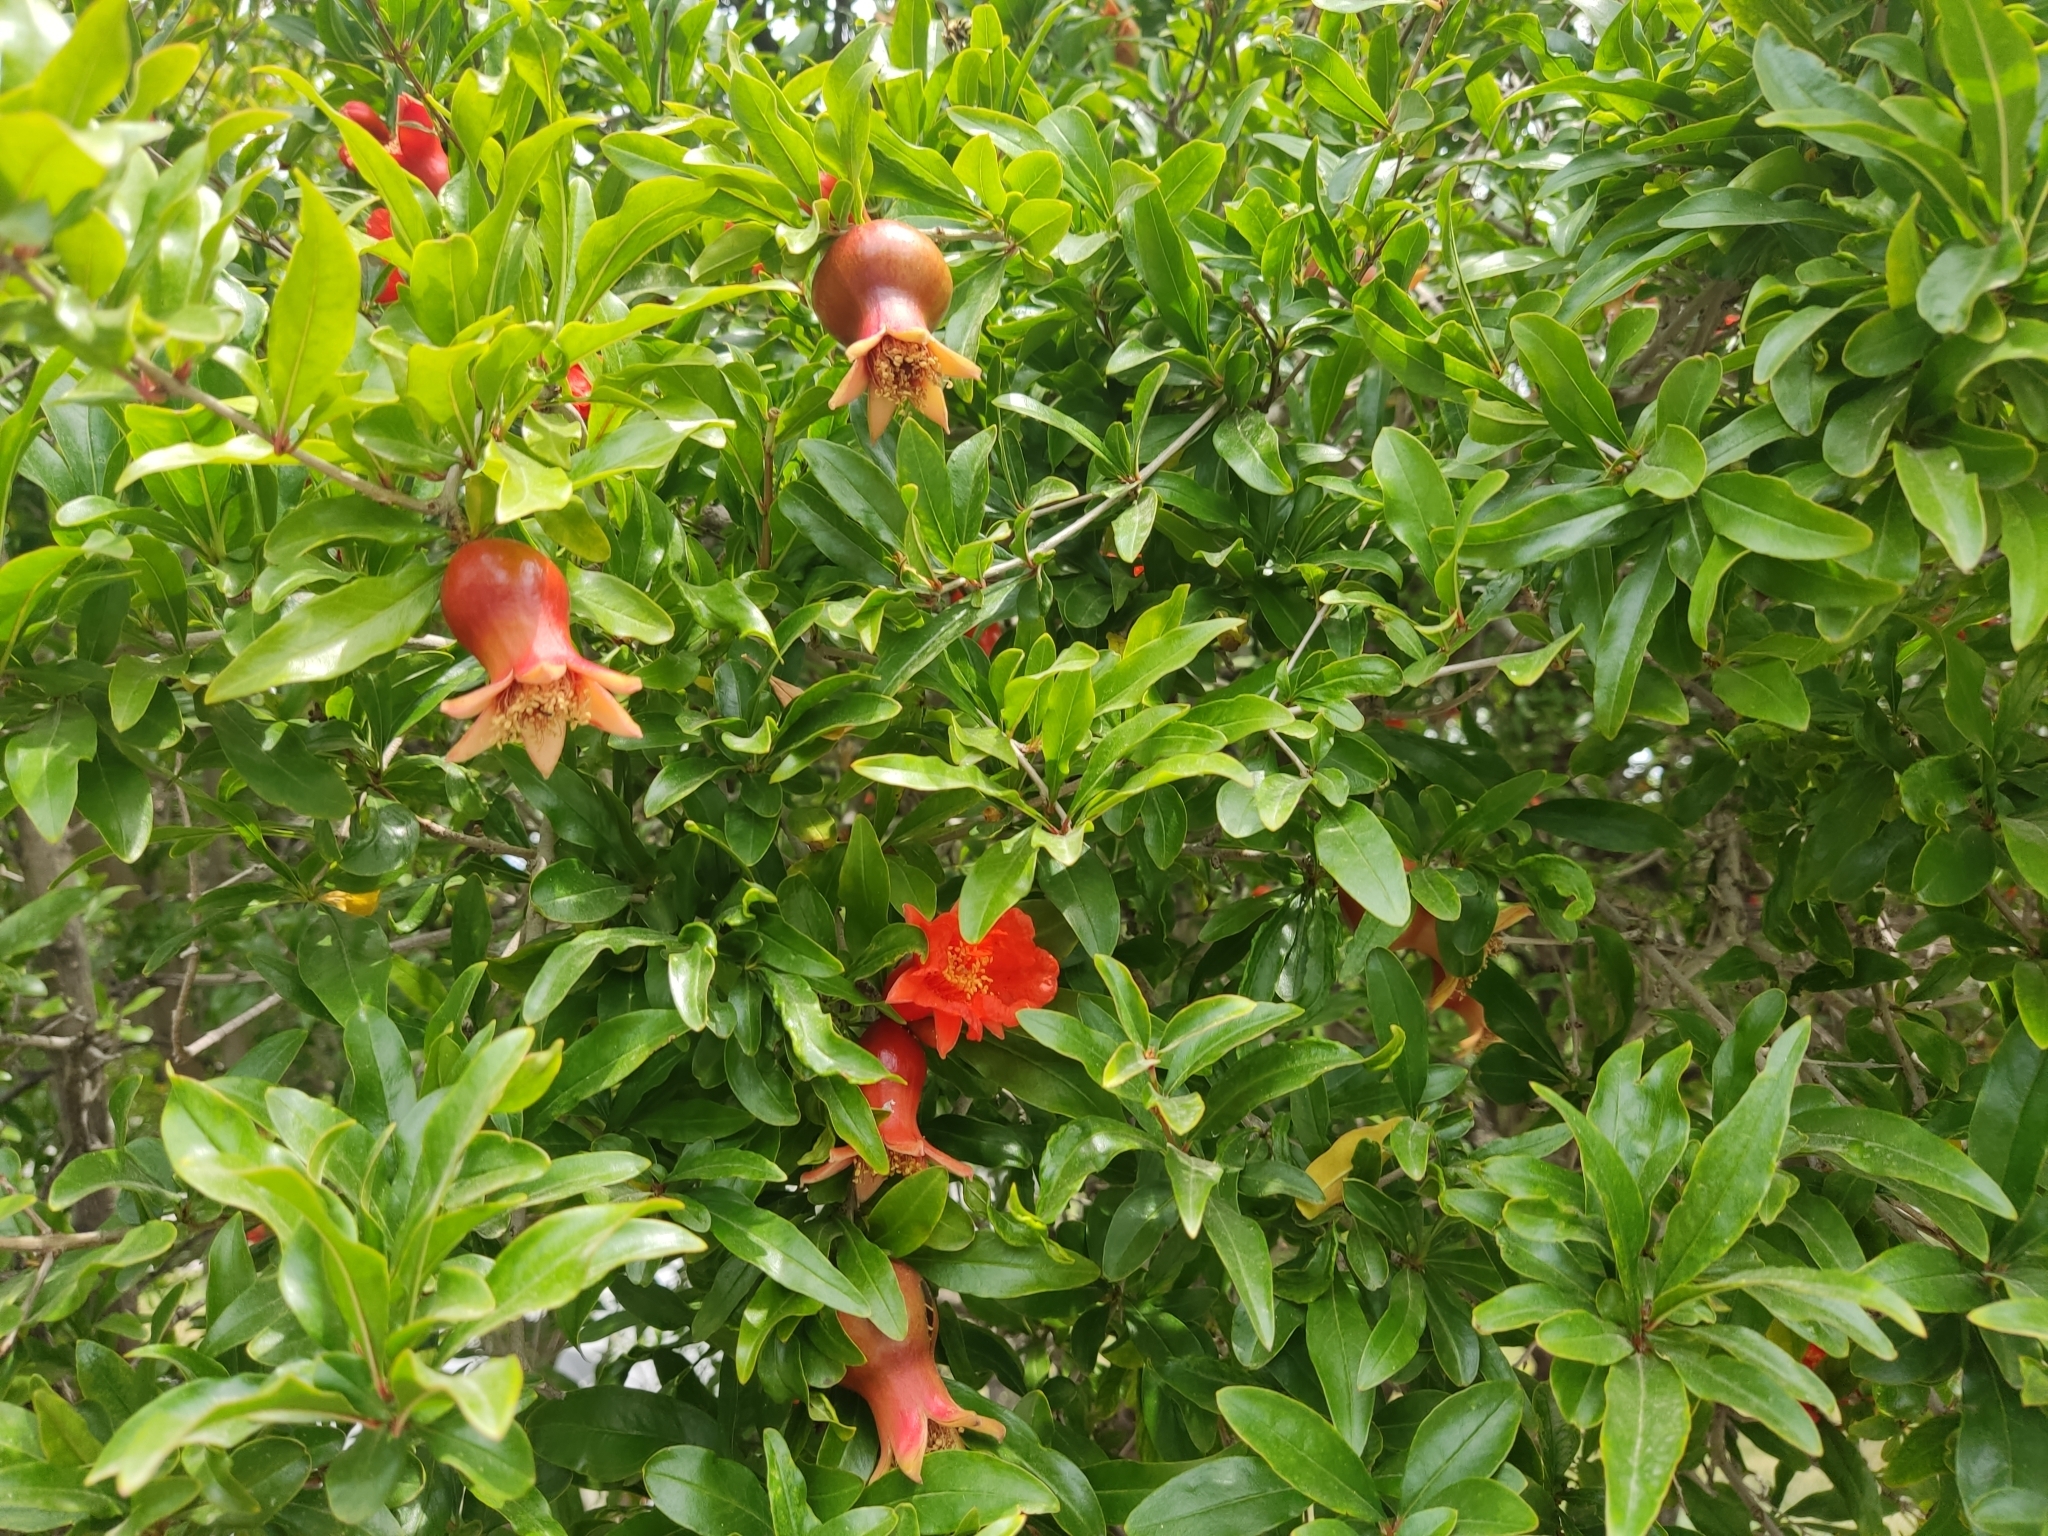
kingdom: Plantae
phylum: Tracheophyta
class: Magnoliopsida
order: Myrtales
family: Lythraceae
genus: Punica
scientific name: Punica granatum
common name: Pomegranate
